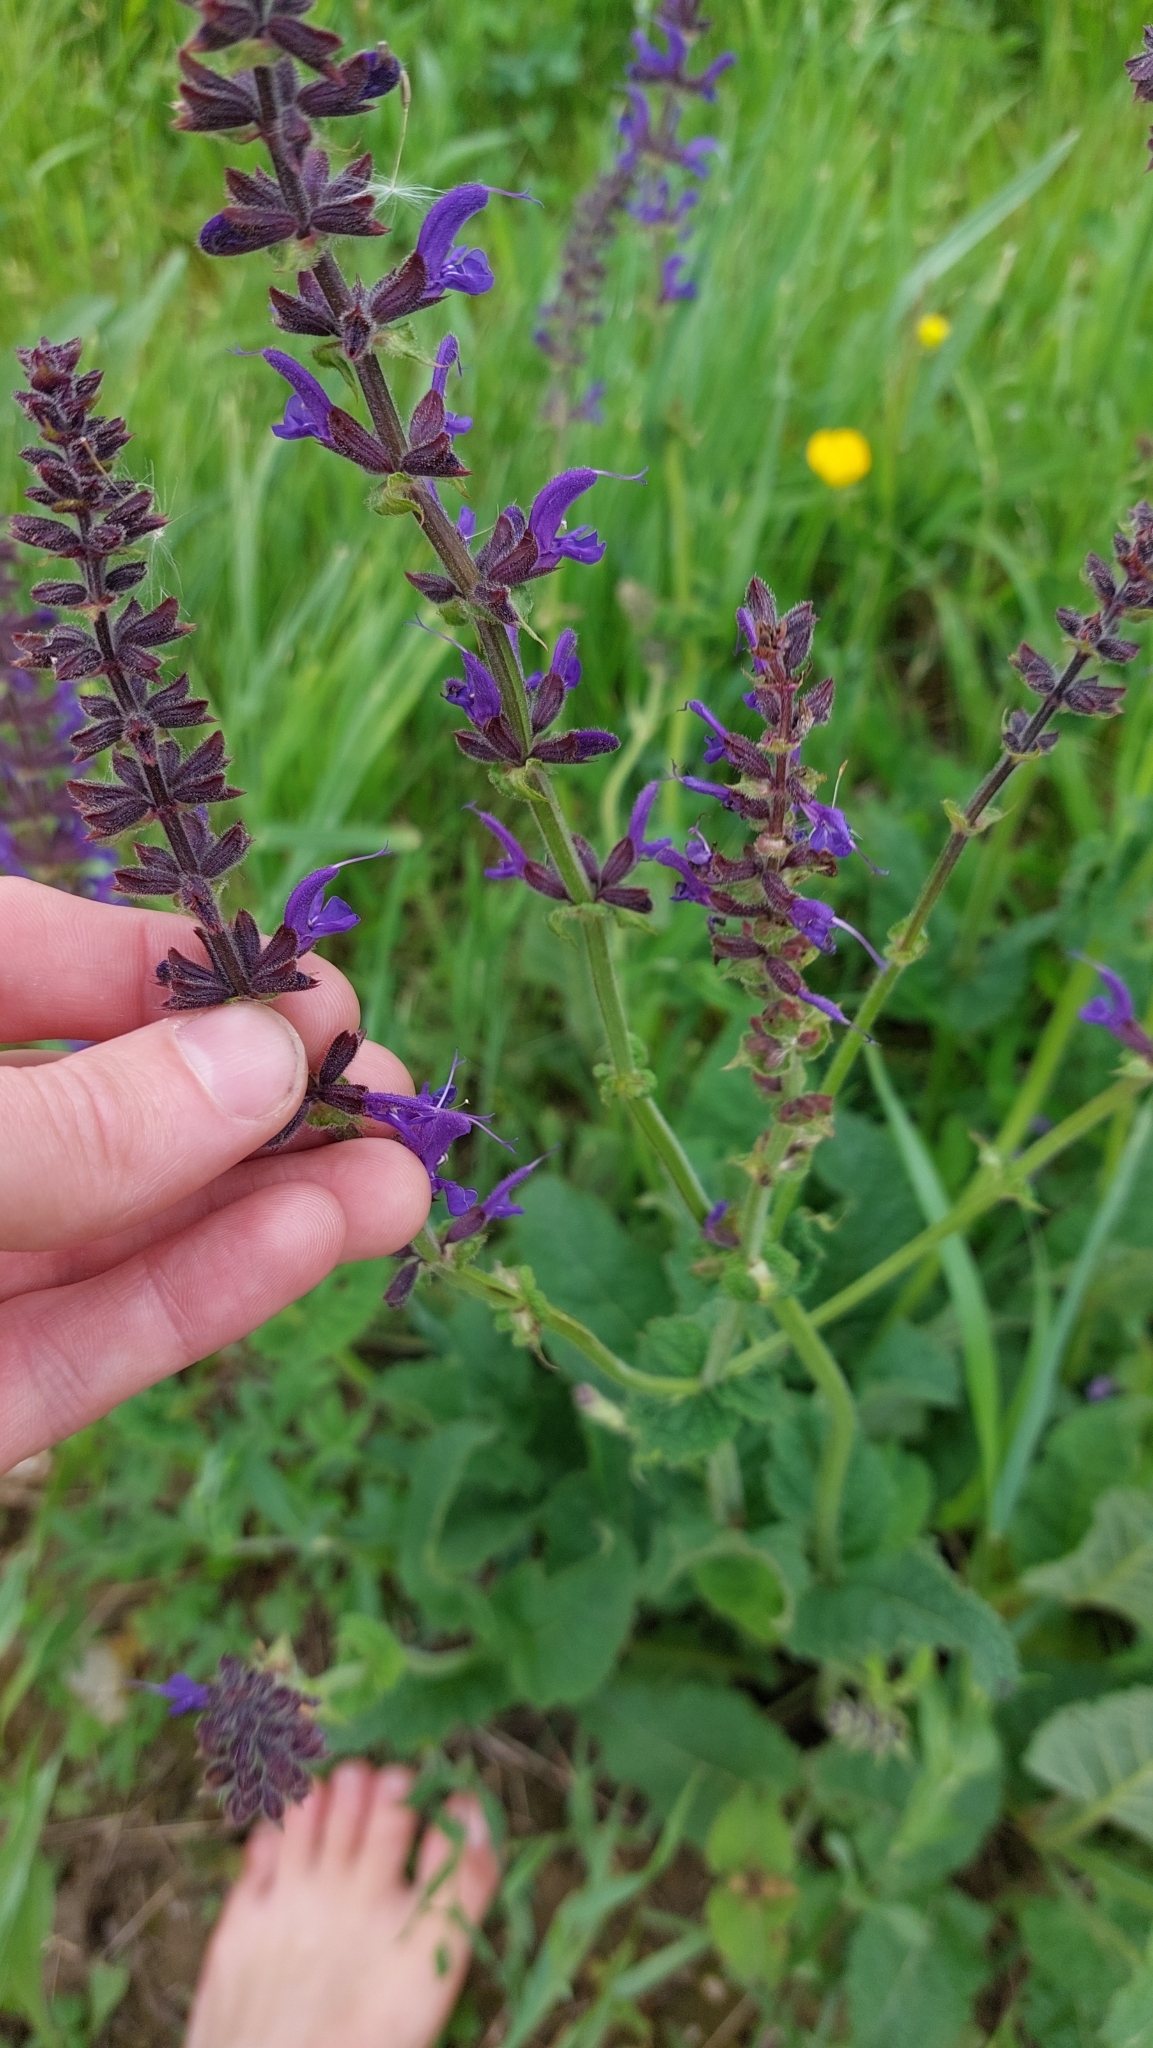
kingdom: Plantae
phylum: Tracheophyta
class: Magnoliopsida
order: Lamiales
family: Lamiaceae
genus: Salvia
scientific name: Salvia pratensis
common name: Meadow sage
